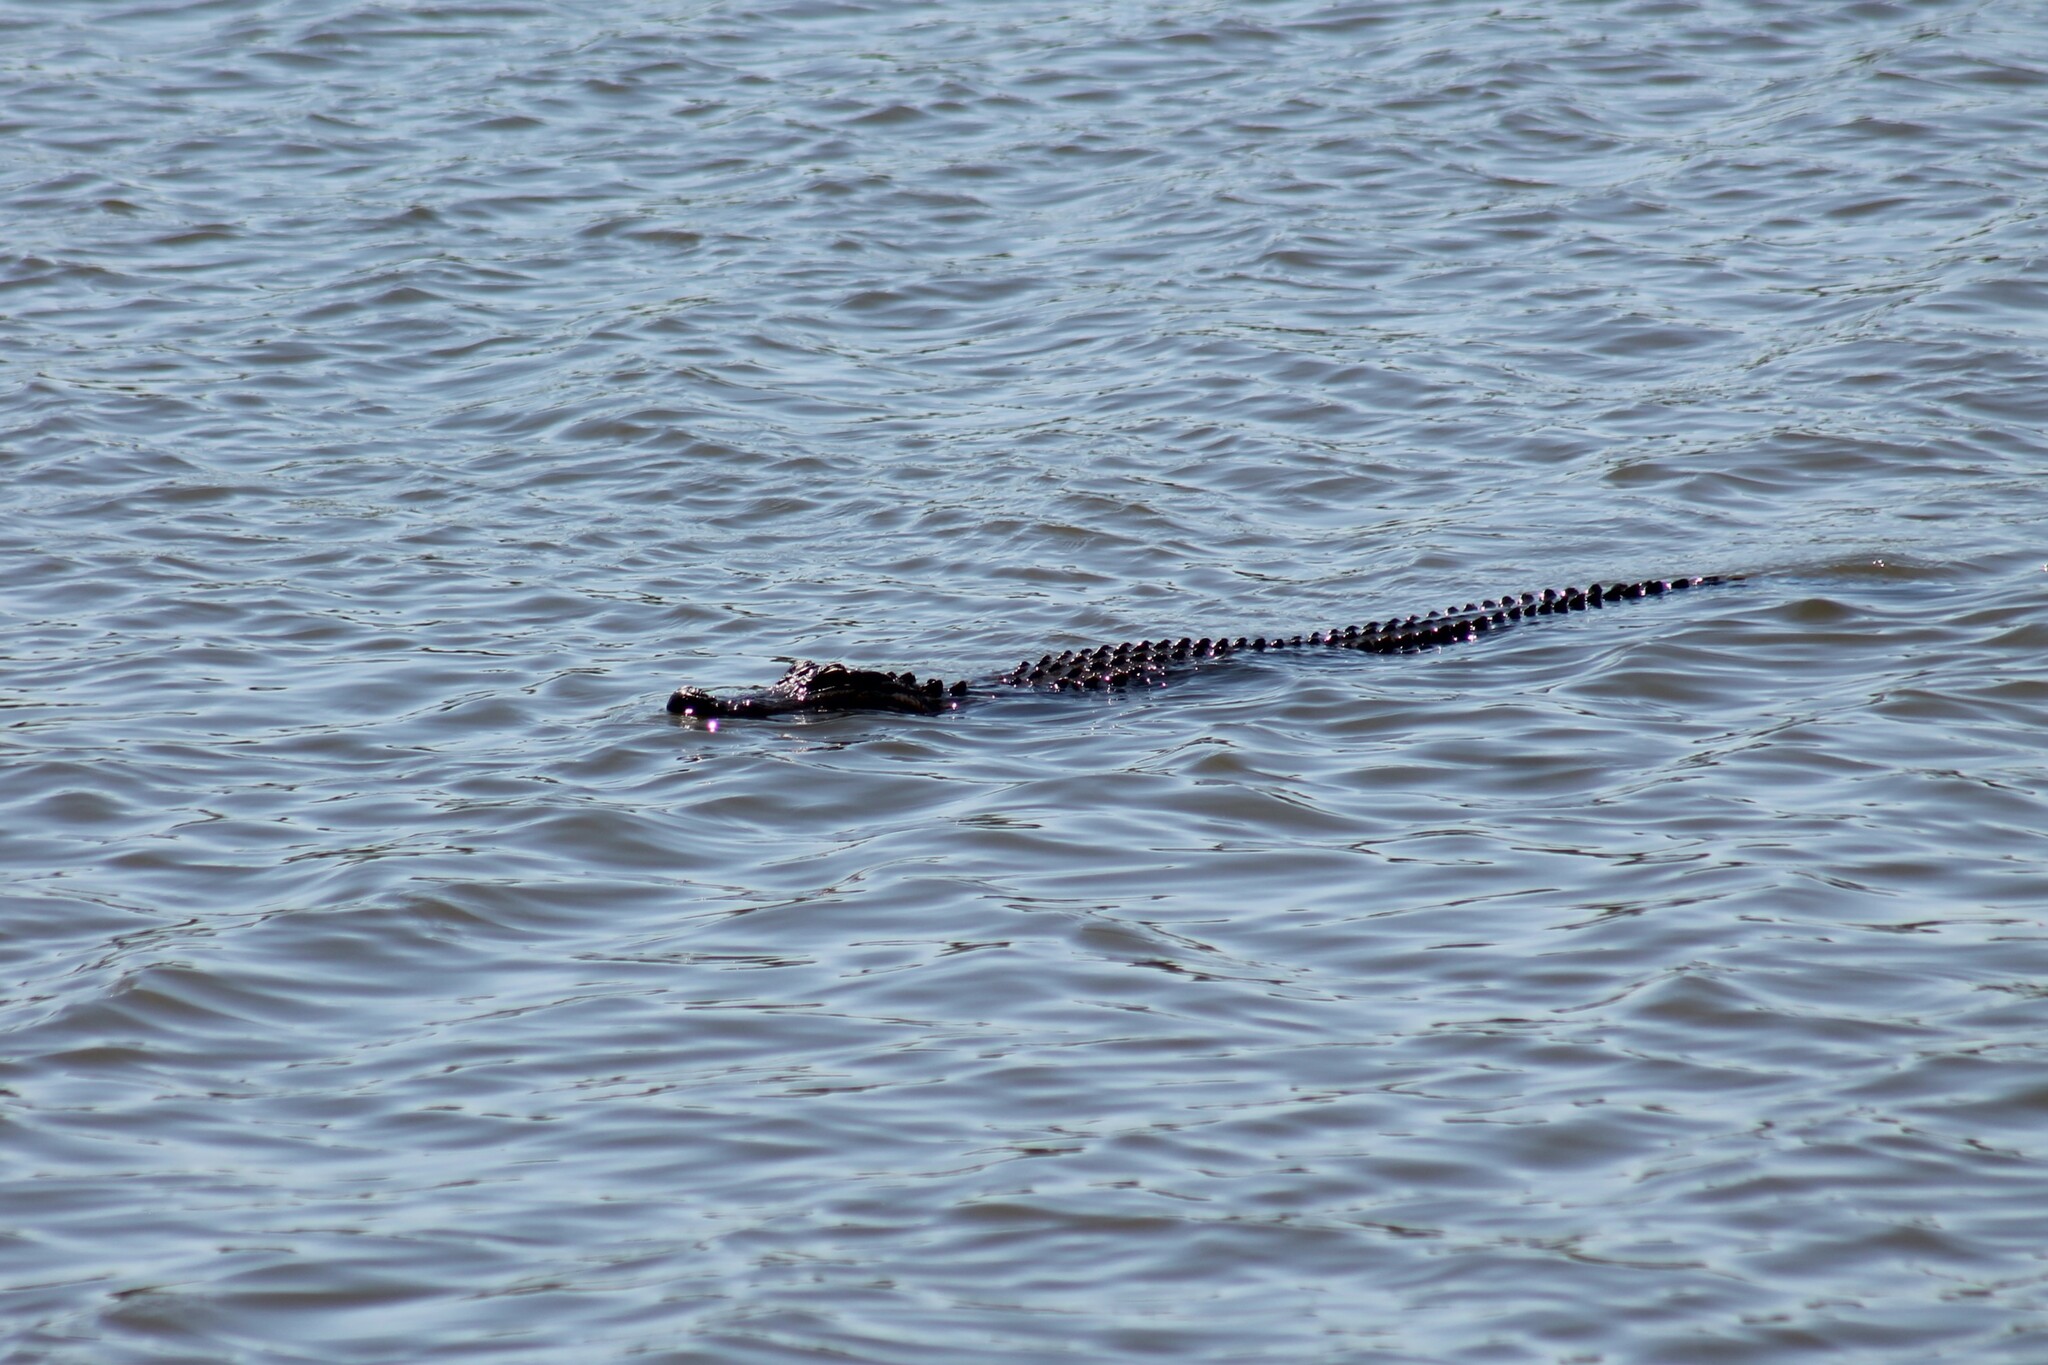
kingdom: Animalia
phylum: Chordata
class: Crocodylia
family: Alligatoridae
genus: Alligator
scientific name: Alligator mississippiensis
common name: American alligator
